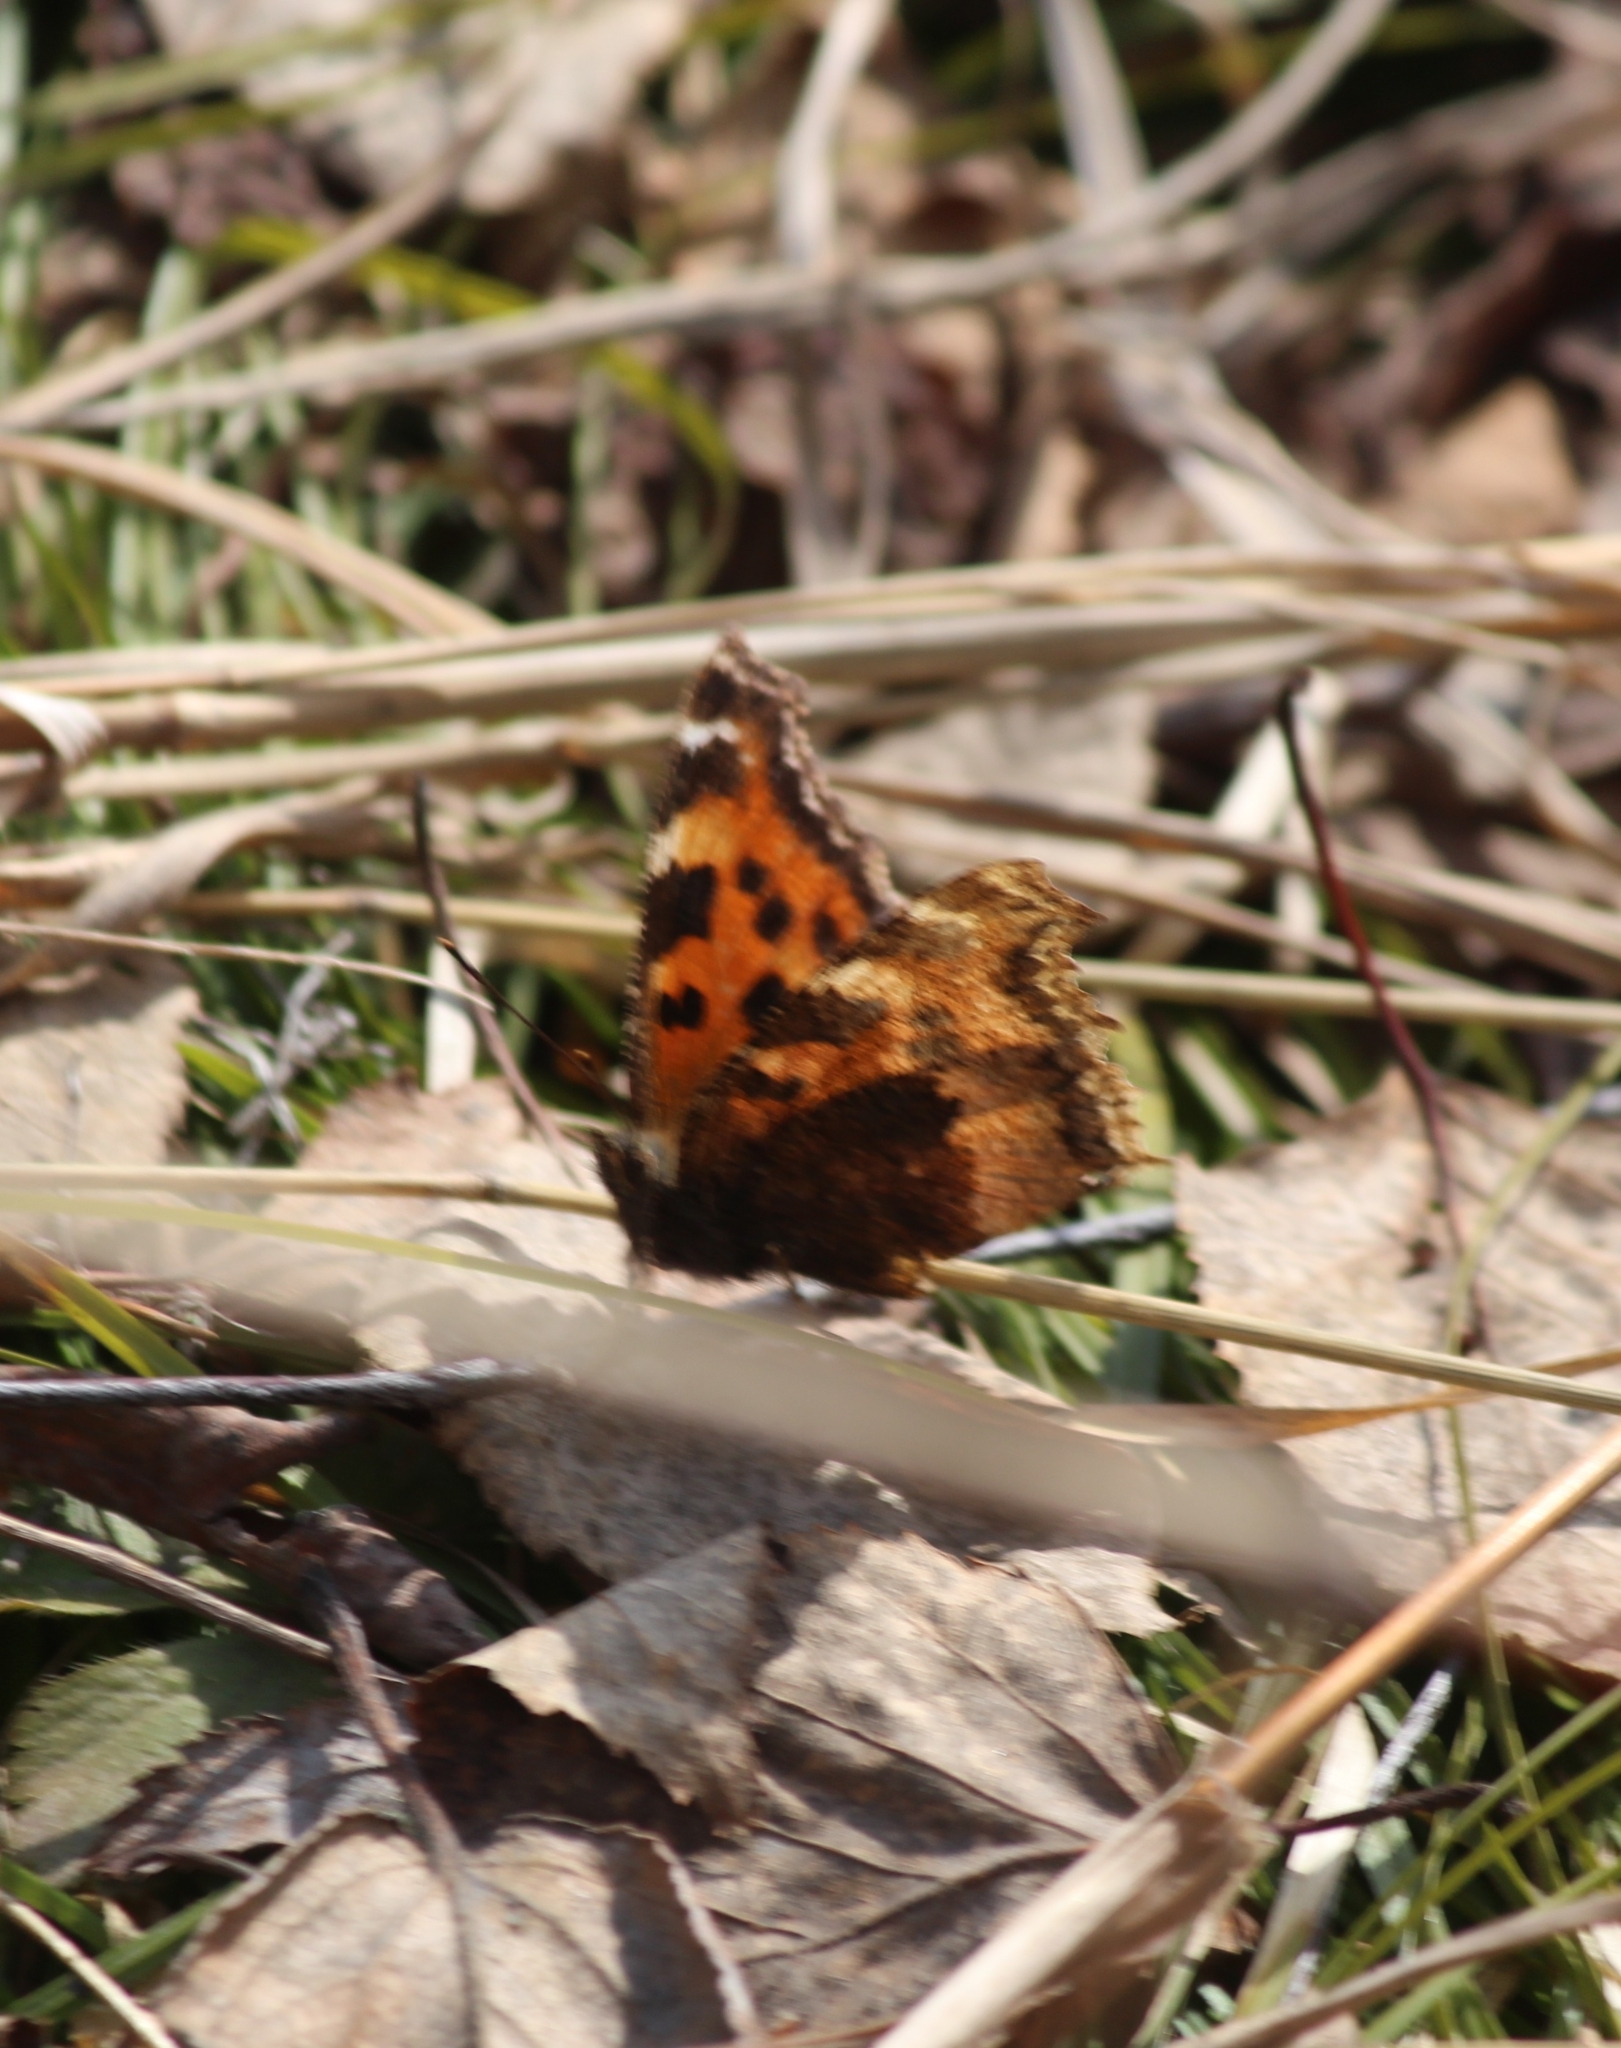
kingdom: Animalia
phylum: Arthropoda
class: Insecta
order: Lepidoptera
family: Nymphalidae
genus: Nymphalis
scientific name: Nymphalis xanthomelas
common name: Scarce tortoiseshell
